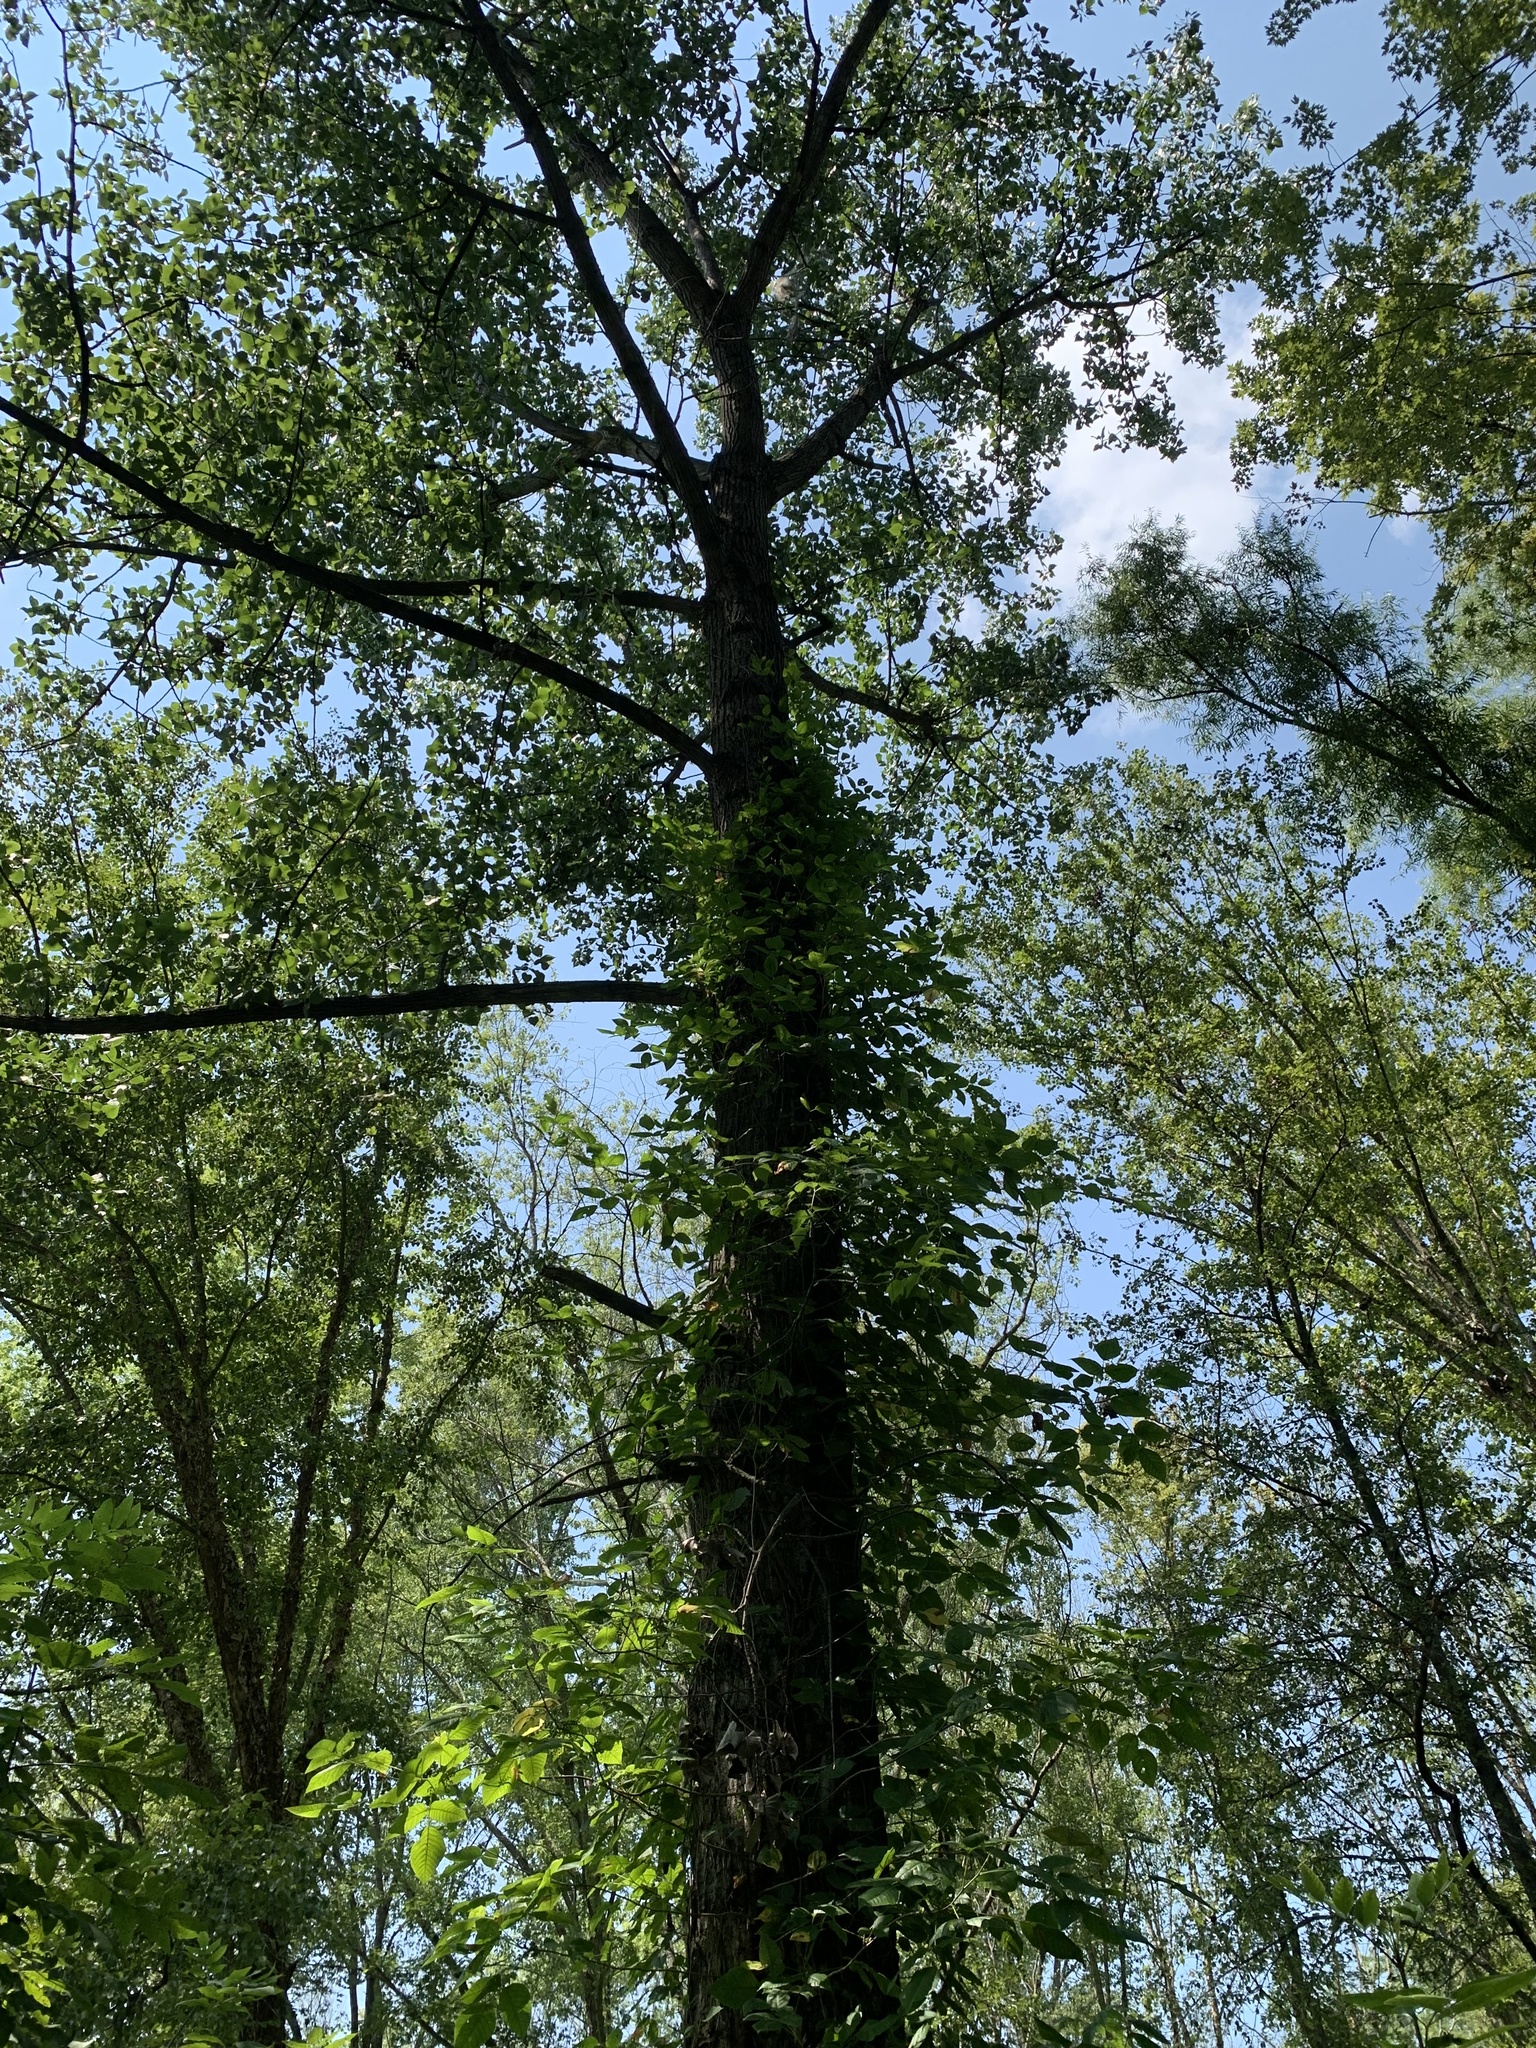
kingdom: Plantae
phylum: Tracheophyta
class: Magnoliopsida
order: Malpighiales
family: Salicaceae
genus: Populus
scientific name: Populus deltoides
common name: Eastern cottonwood
